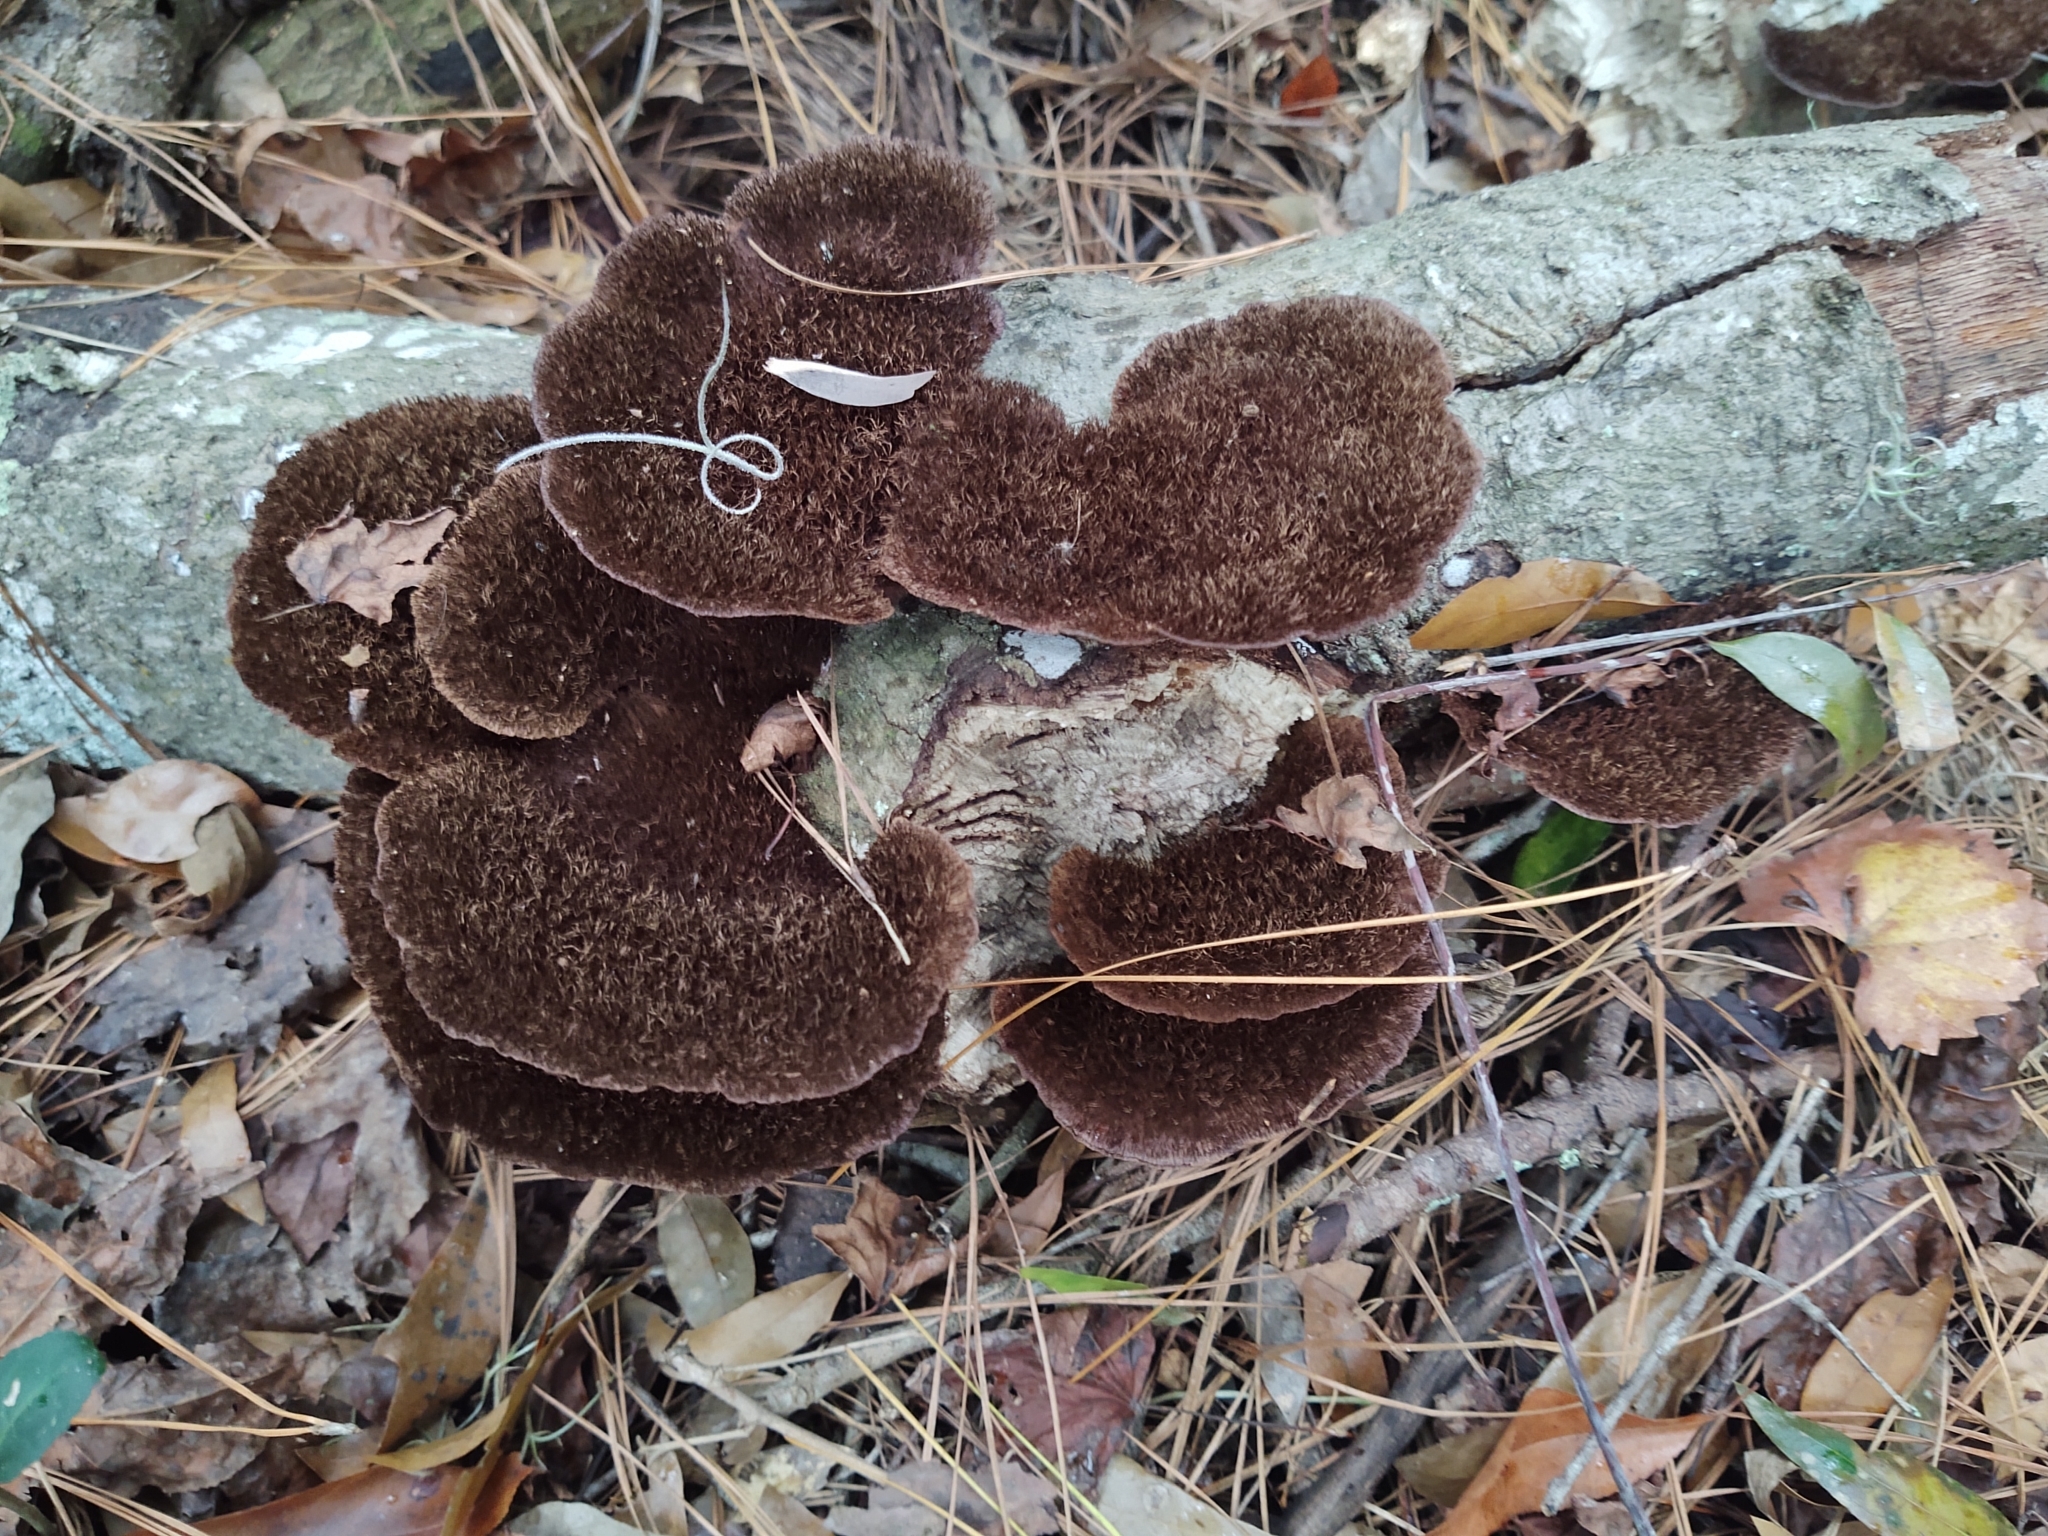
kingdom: Fungi
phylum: Basidiomycota
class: Agaricomycetes
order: Polyporales
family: Cerrenaceae
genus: Cerrena
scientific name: Cerrena hydnoides
